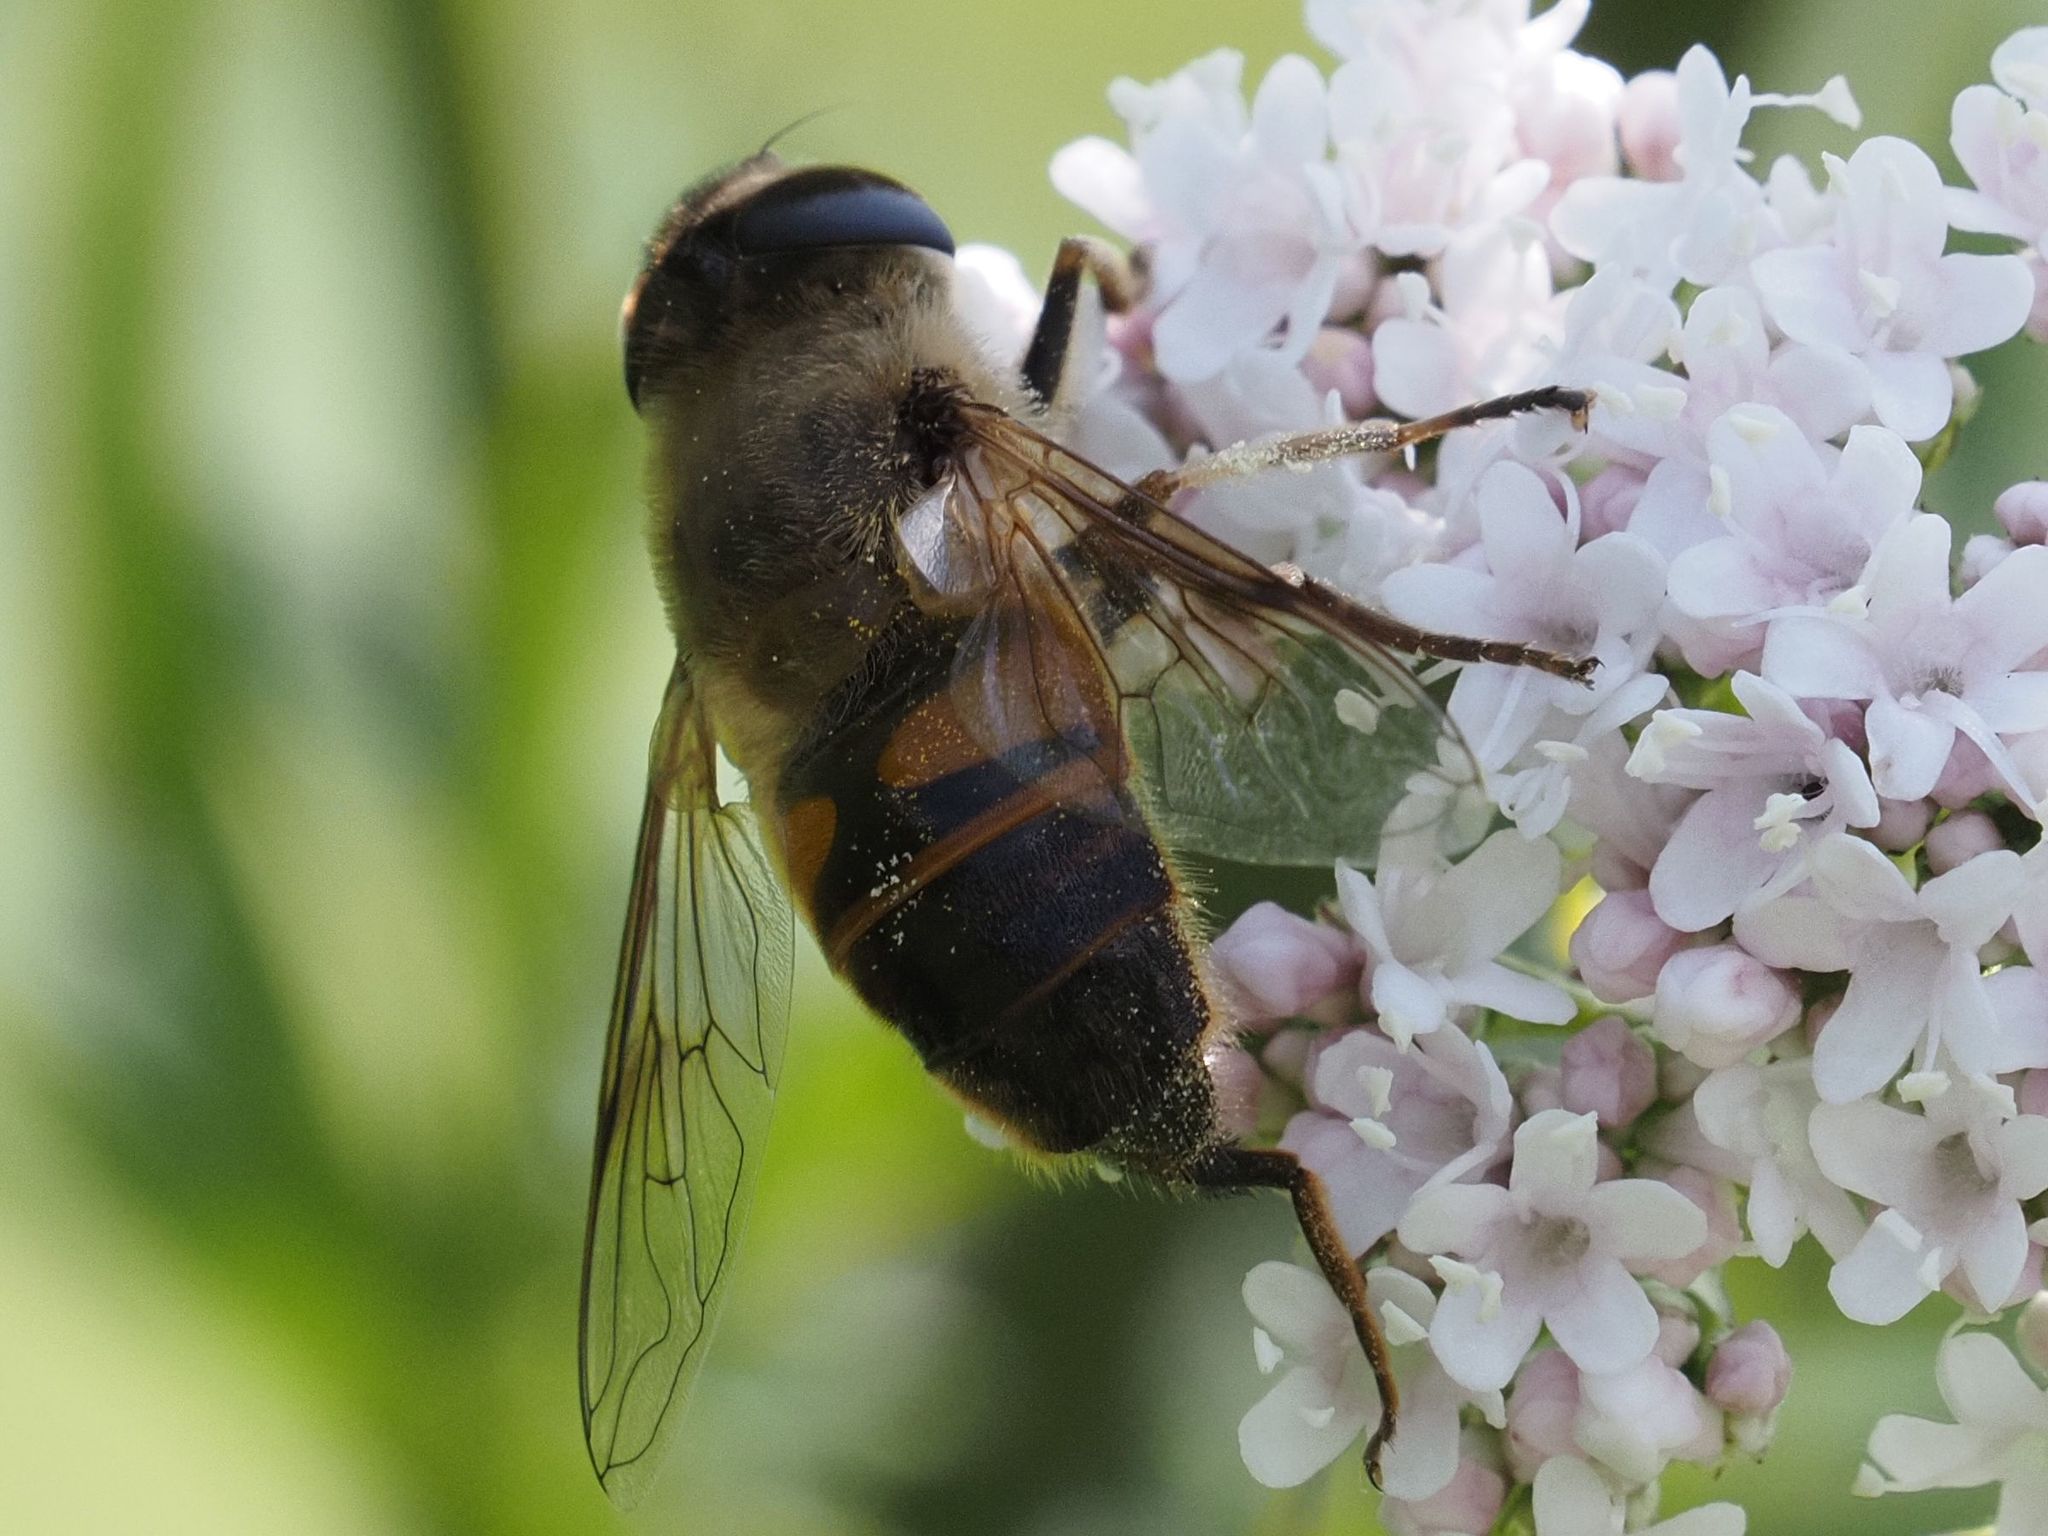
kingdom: Animalia
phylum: Arthropoda
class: Insecta
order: Diptera
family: Syrphidae
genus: Eristalis
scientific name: Eristalis tenax
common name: Drone fly
